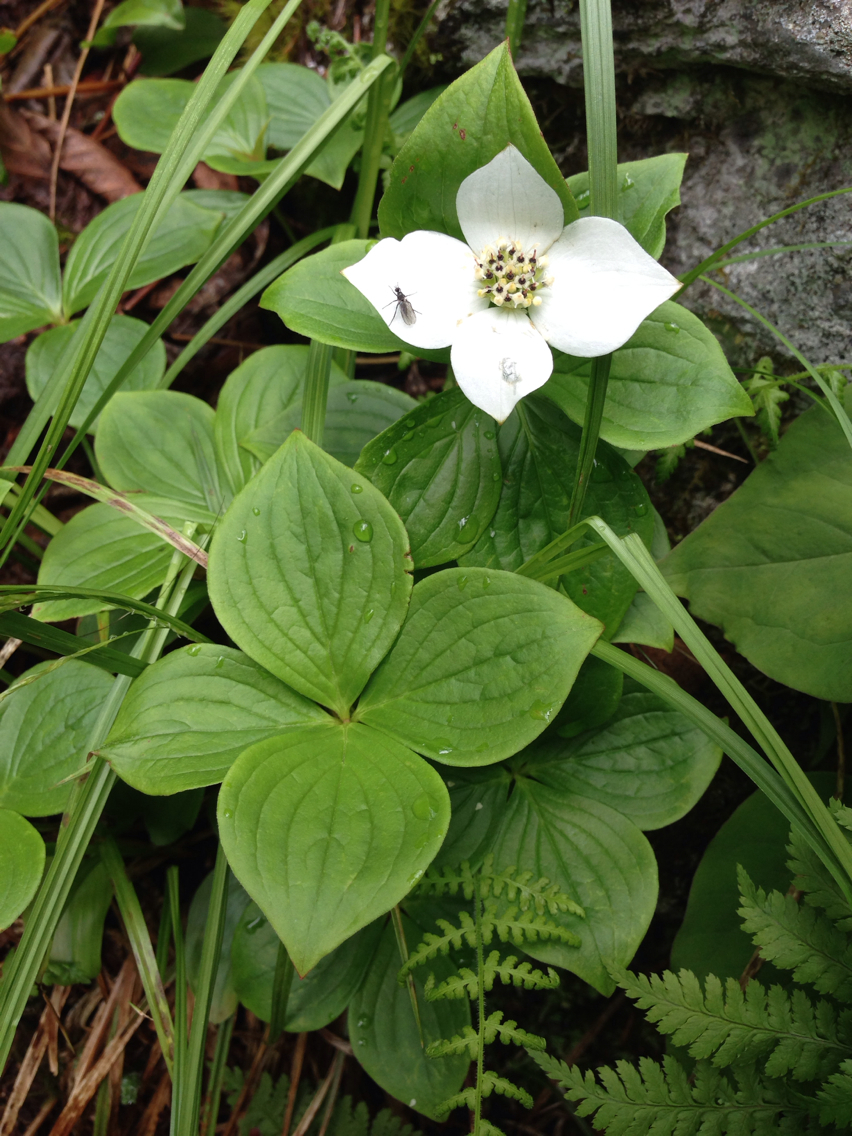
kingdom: Plantae
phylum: Tracheophyta
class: Magnoliopsida
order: Cornales
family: Cornaceae
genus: Cornus
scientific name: Cornus canadensis
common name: Creeping dogwood
